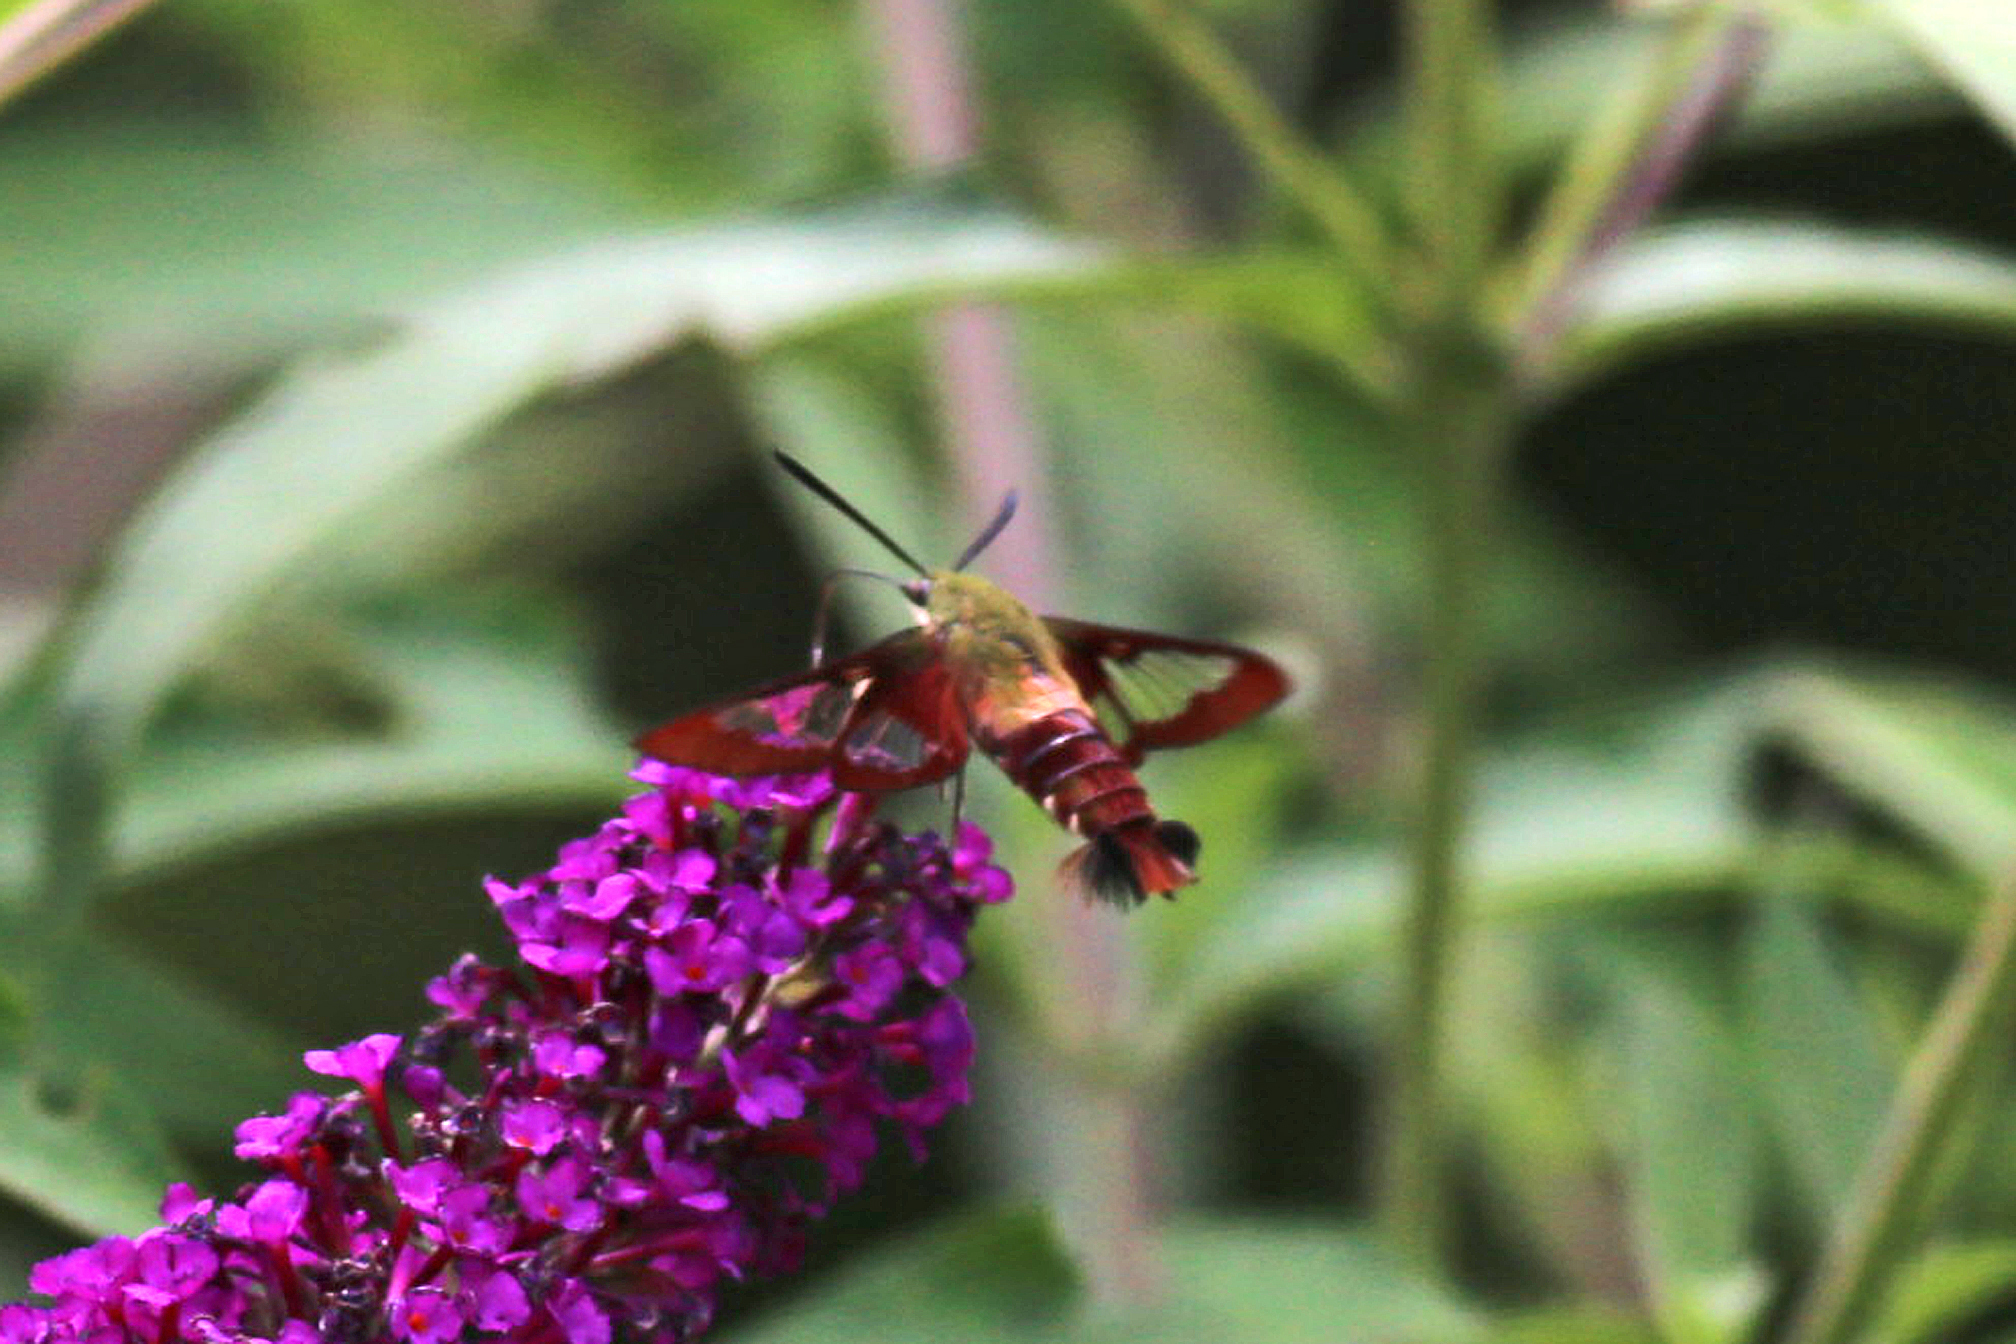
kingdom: Animalia
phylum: Arthropoda
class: Insecta
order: Lepidoptera
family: Sphingidae
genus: Hemaris
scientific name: Hemaris thysbe
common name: Common clear-wing
